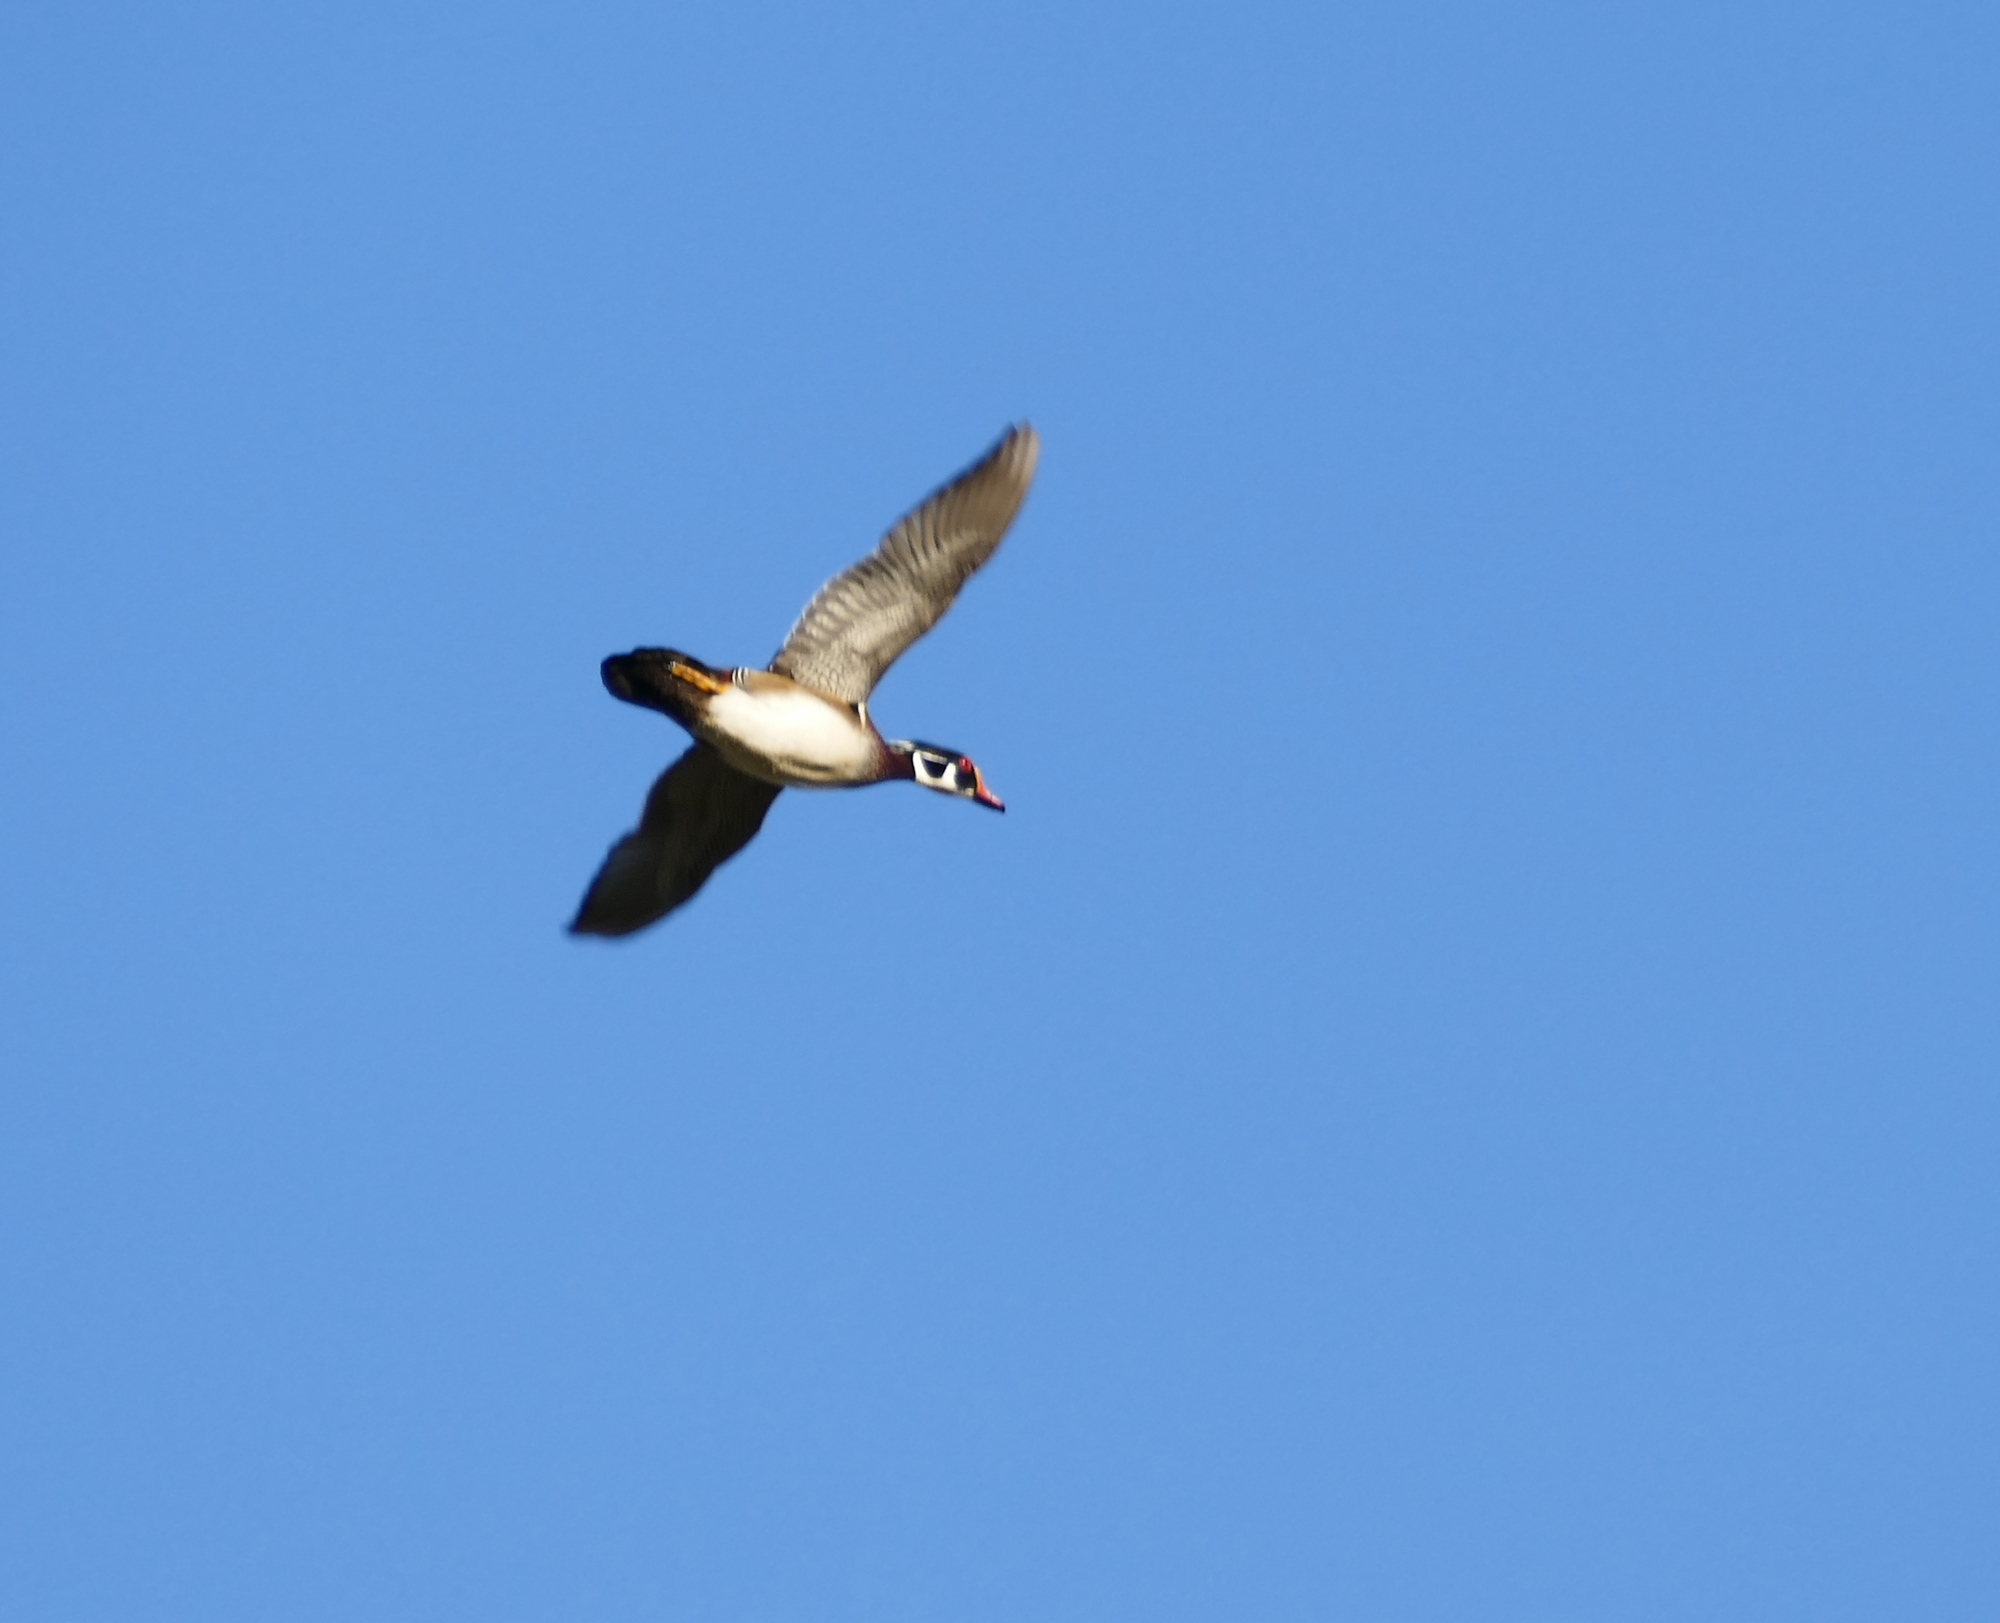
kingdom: Animalia
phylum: Chordata
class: Aves
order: Anseriformes
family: Anatidae
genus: Aix
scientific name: Aix sponsa
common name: Wood duck
